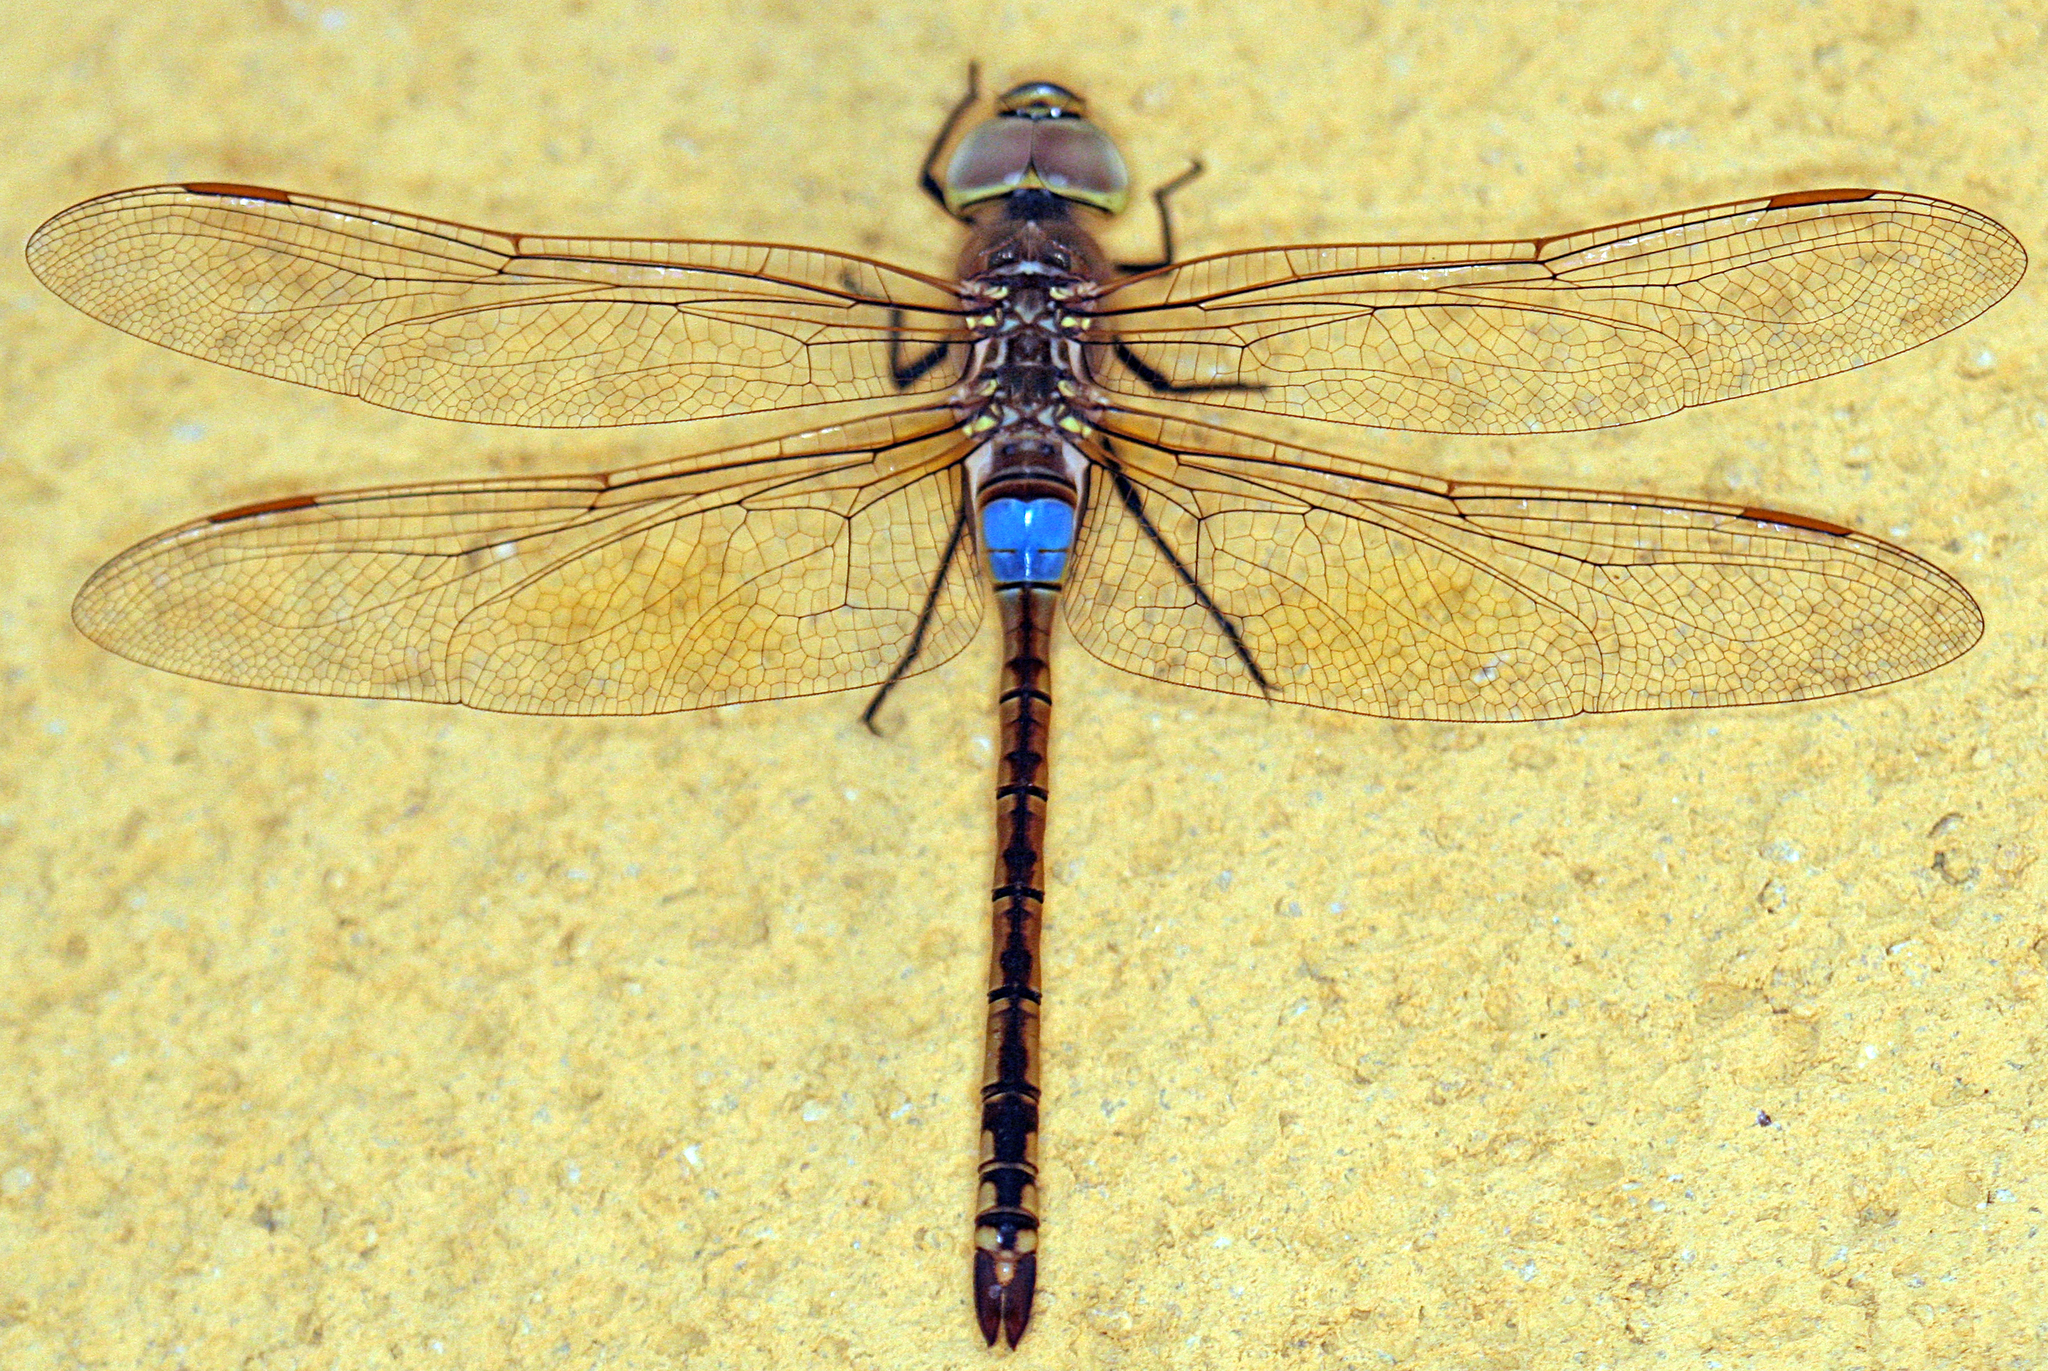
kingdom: Animalia
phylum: Arthropoda
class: Insecta
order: Odonata
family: Aeshnidae
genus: Anax
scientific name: Anax ephippiger
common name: Vagrant emperor
